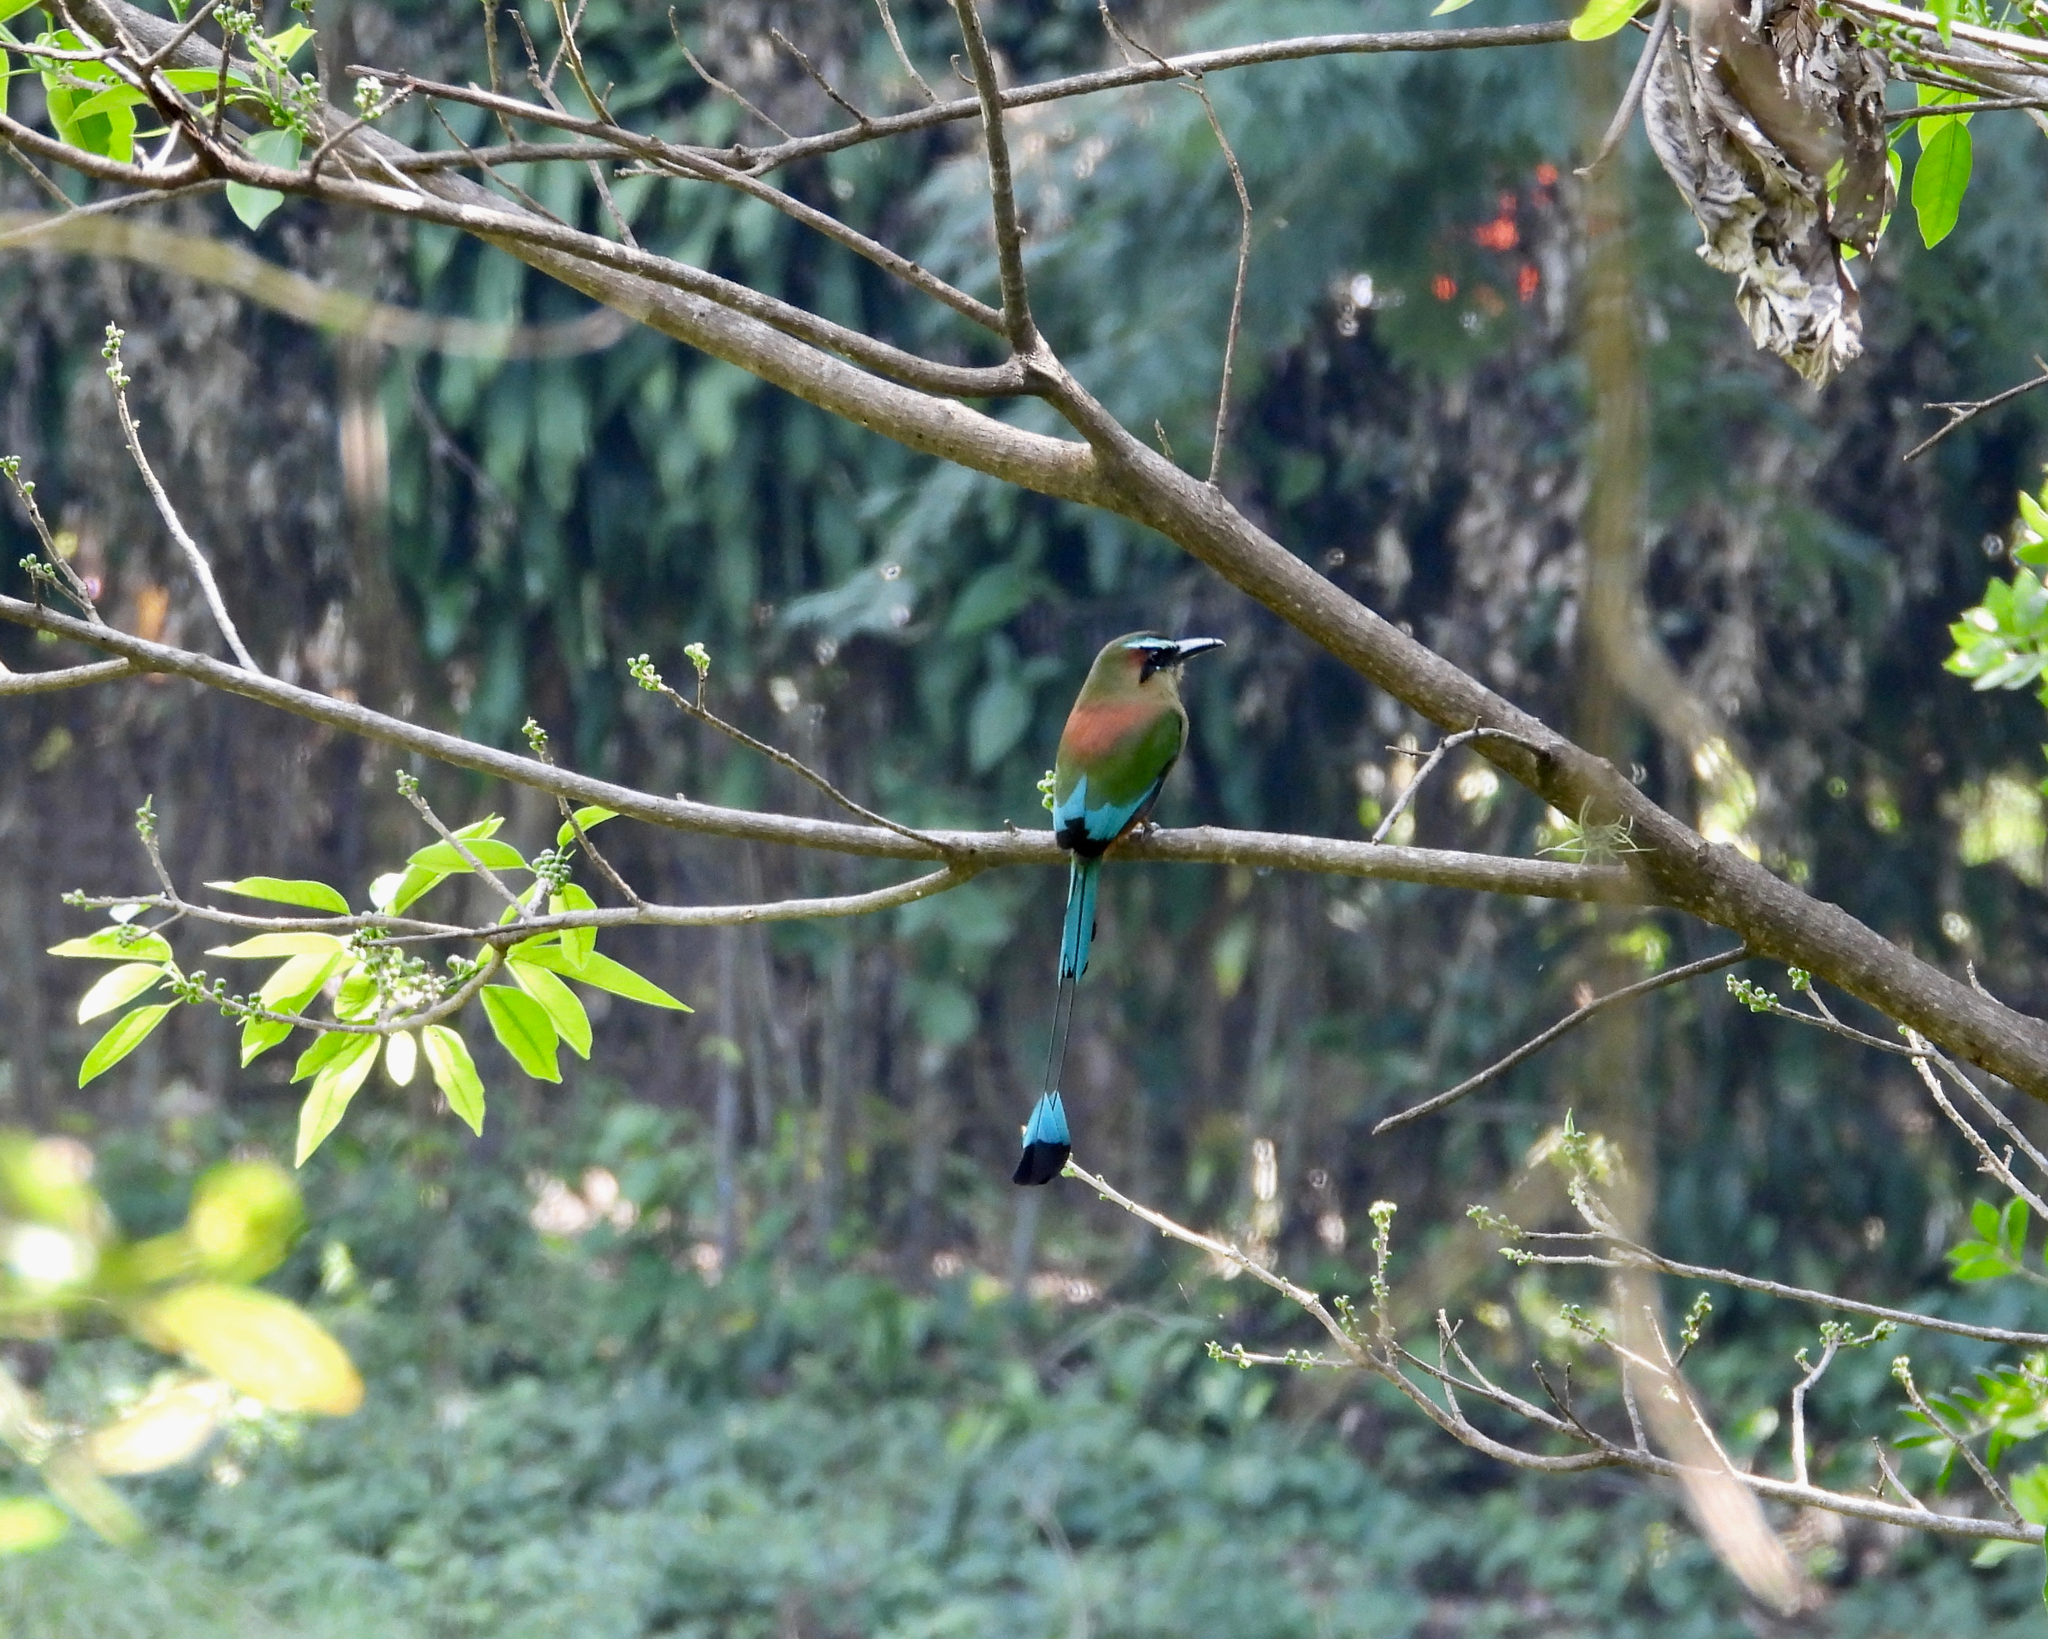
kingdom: Animalia
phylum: Chordata
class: Aves
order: Coraciiformes
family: Momotidae
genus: Eumomota
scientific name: Eumomota superciliosa
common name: Turquoise-browed motmot
